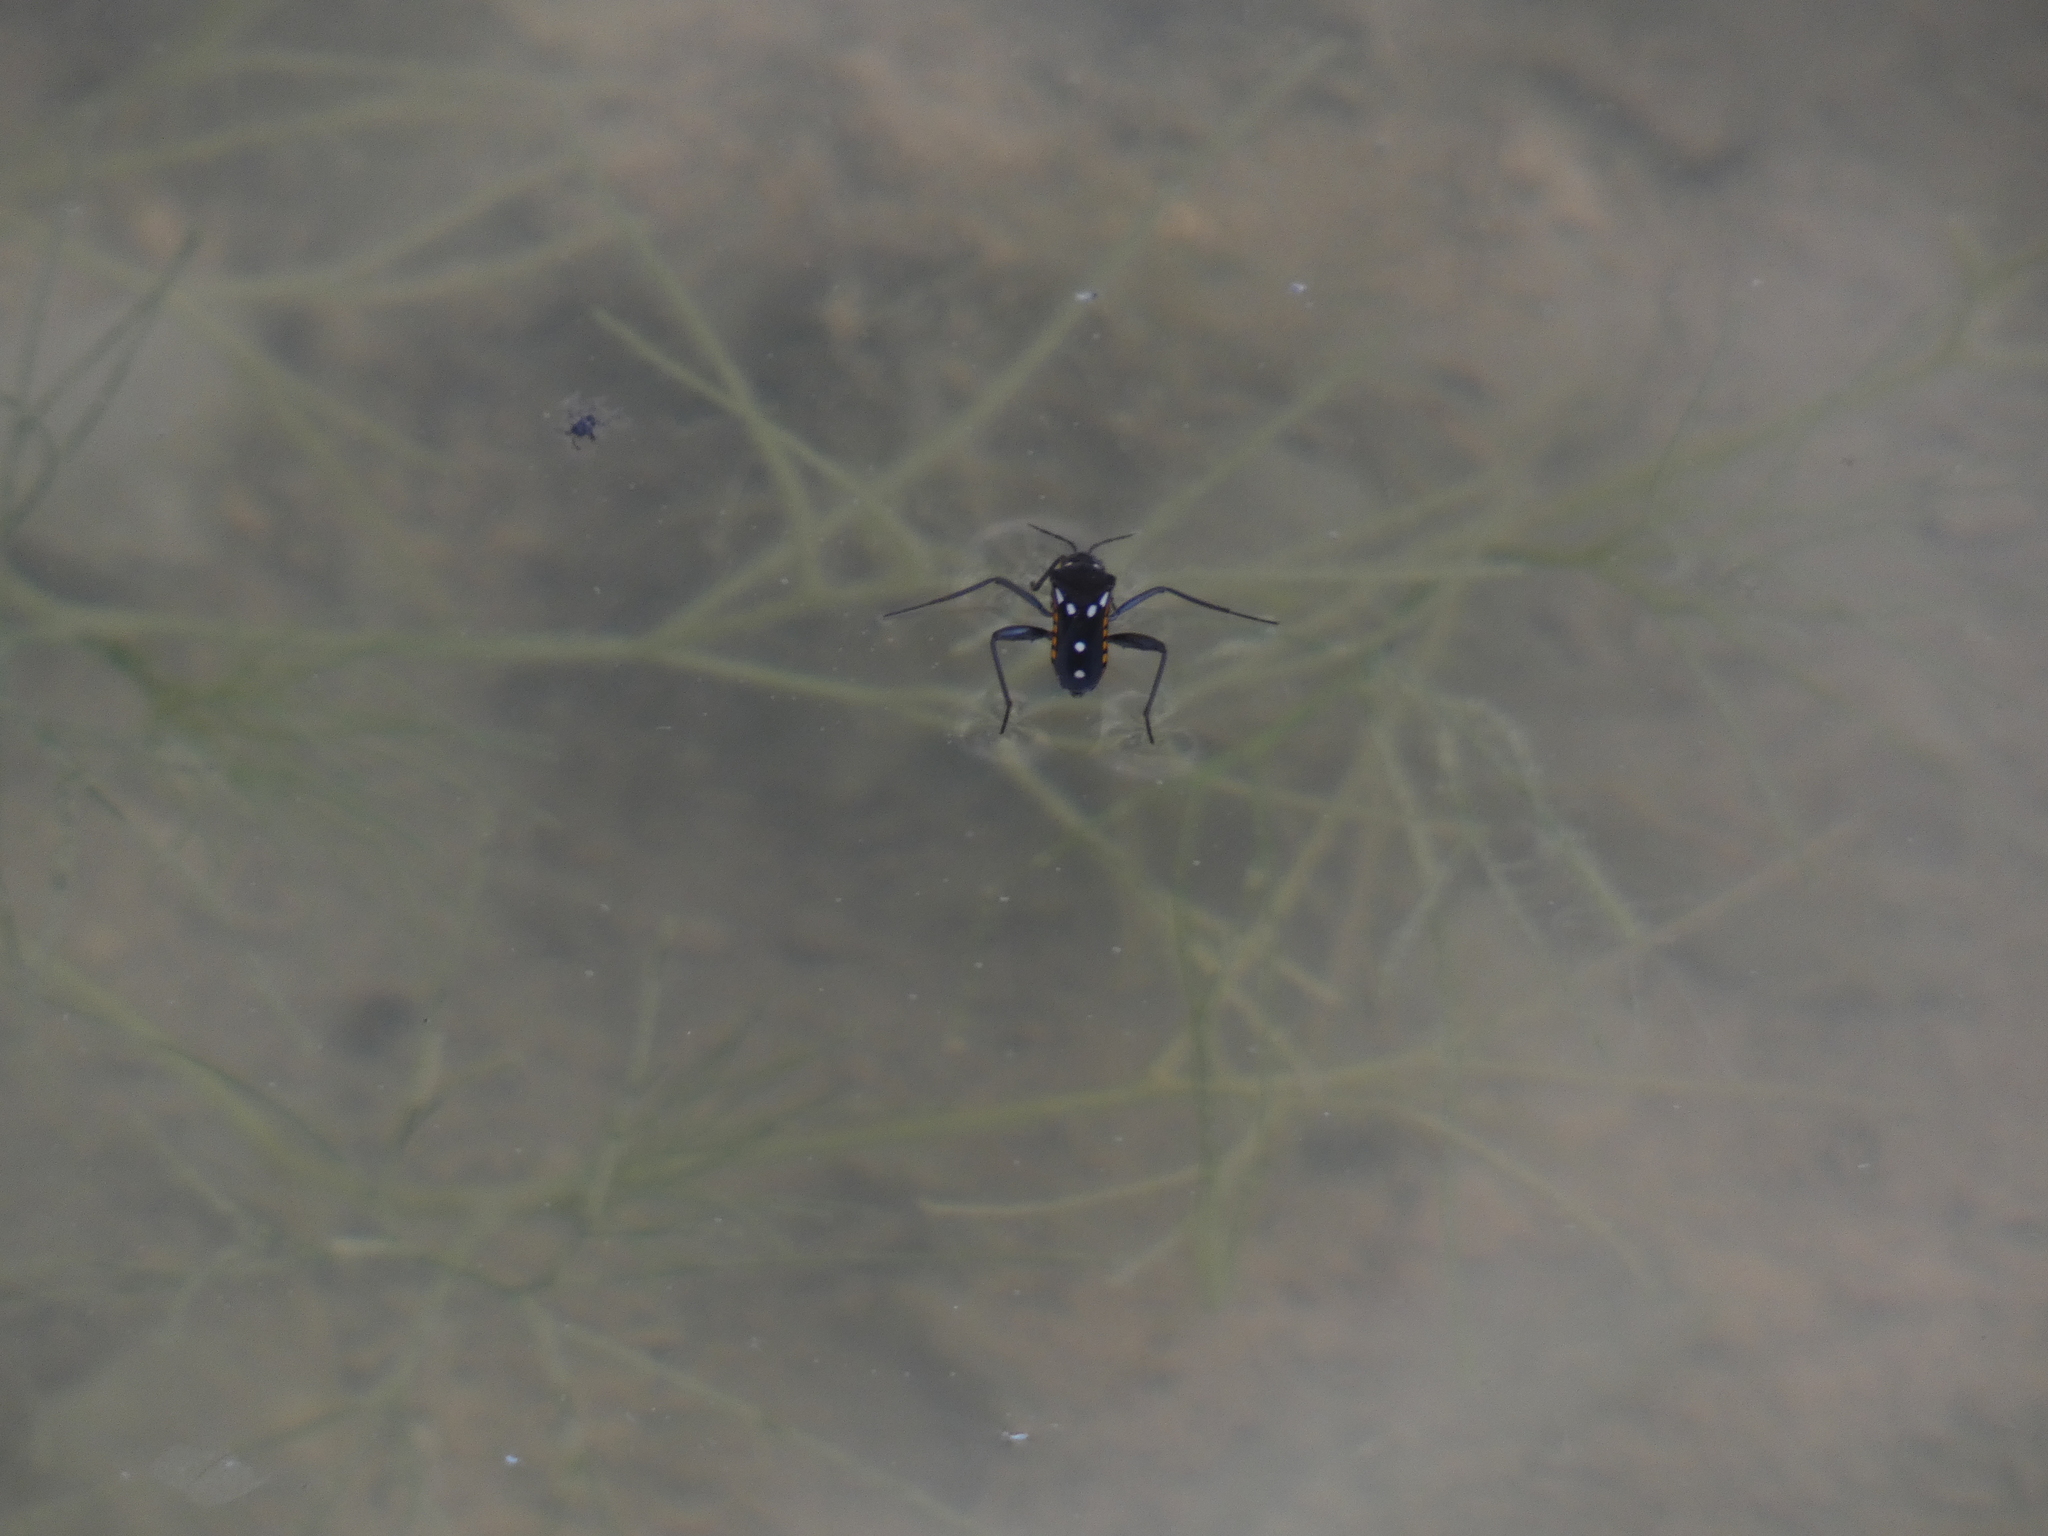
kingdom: Animalia
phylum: Arthropoda
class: Insecta
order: Hemiptera
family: Veliidae
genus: Velia
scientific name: Velia saulii
